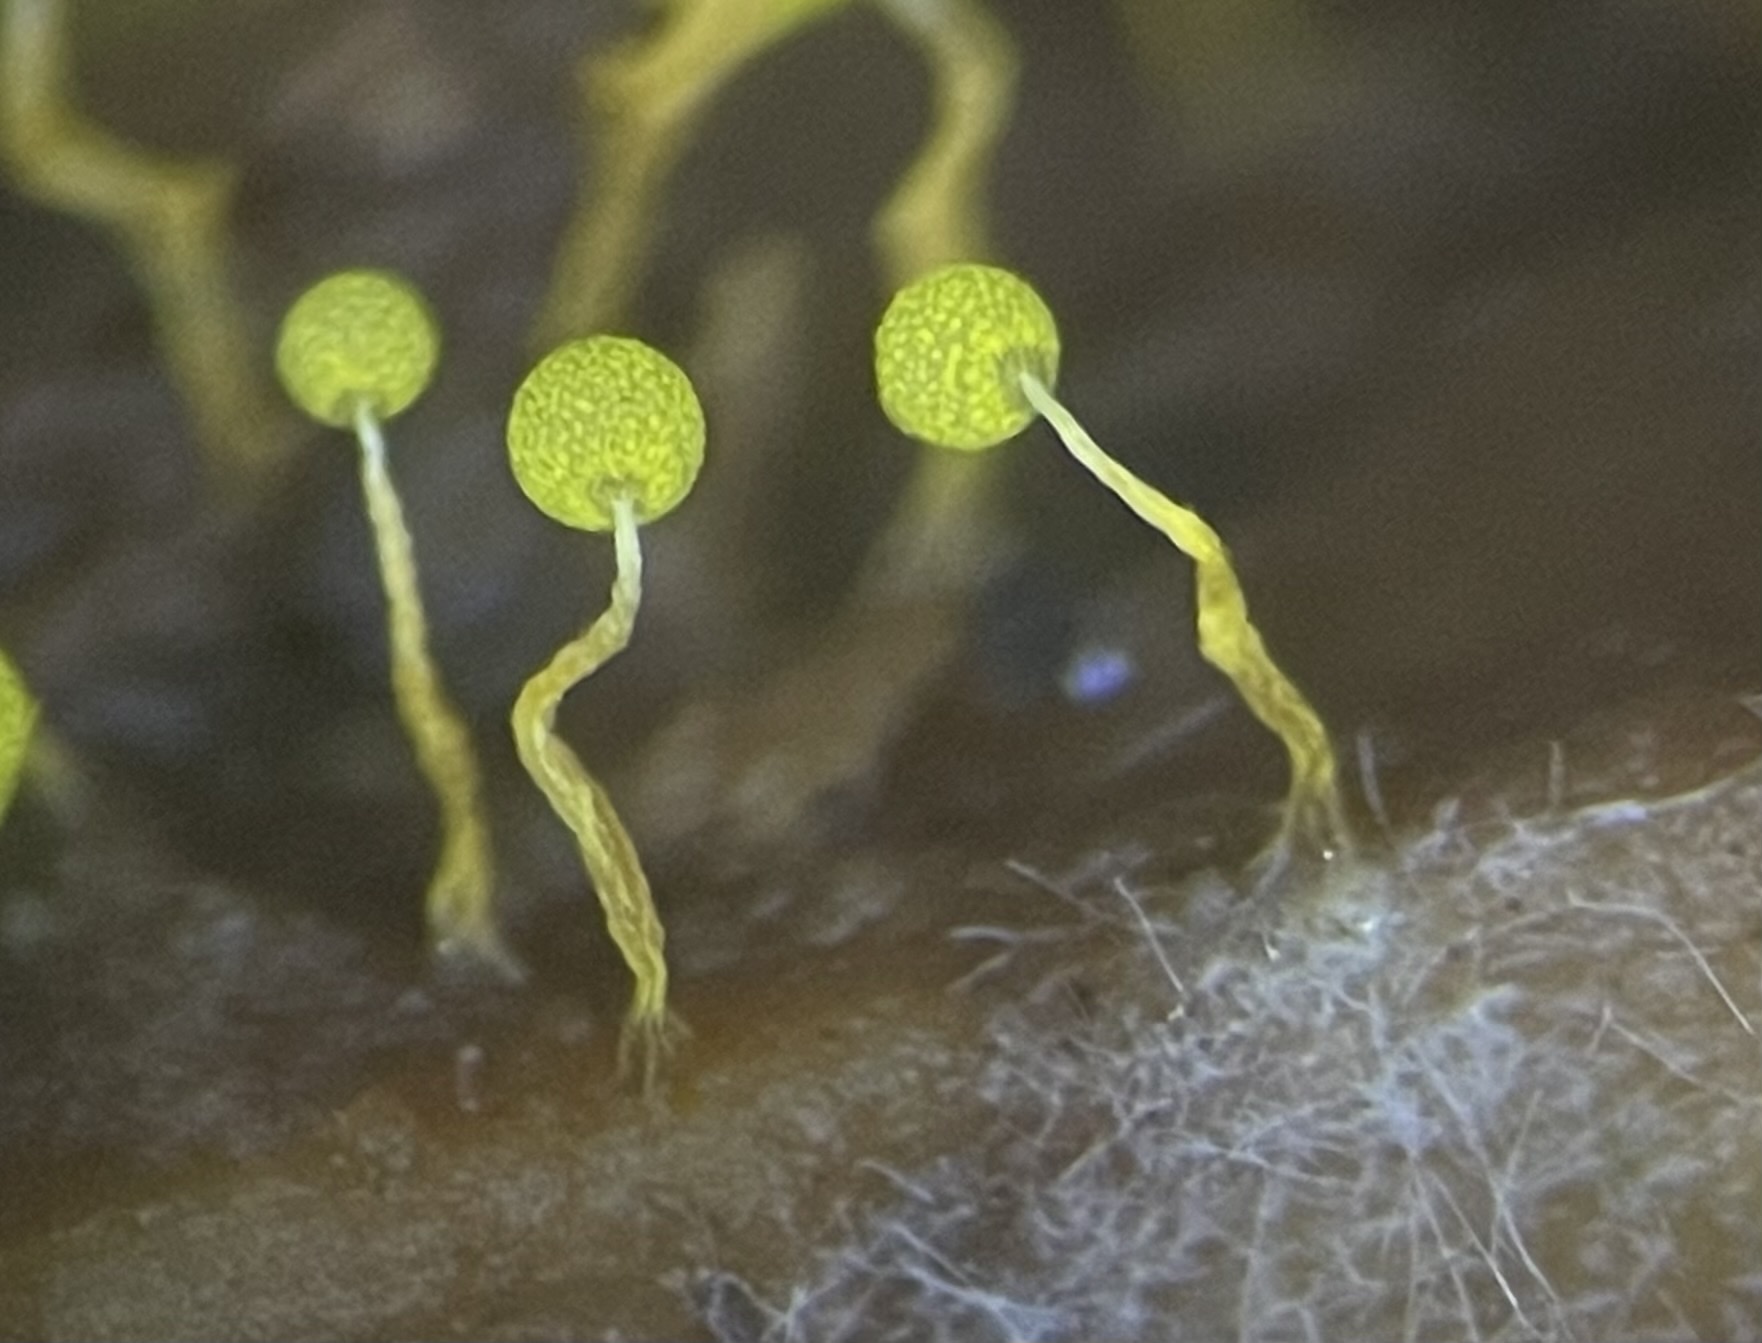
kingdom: Protozoa
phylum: Mycetozoa
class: Myxomycetes
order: Physarales
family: Physaraceae
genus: Physarum
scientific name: Physarum viride
